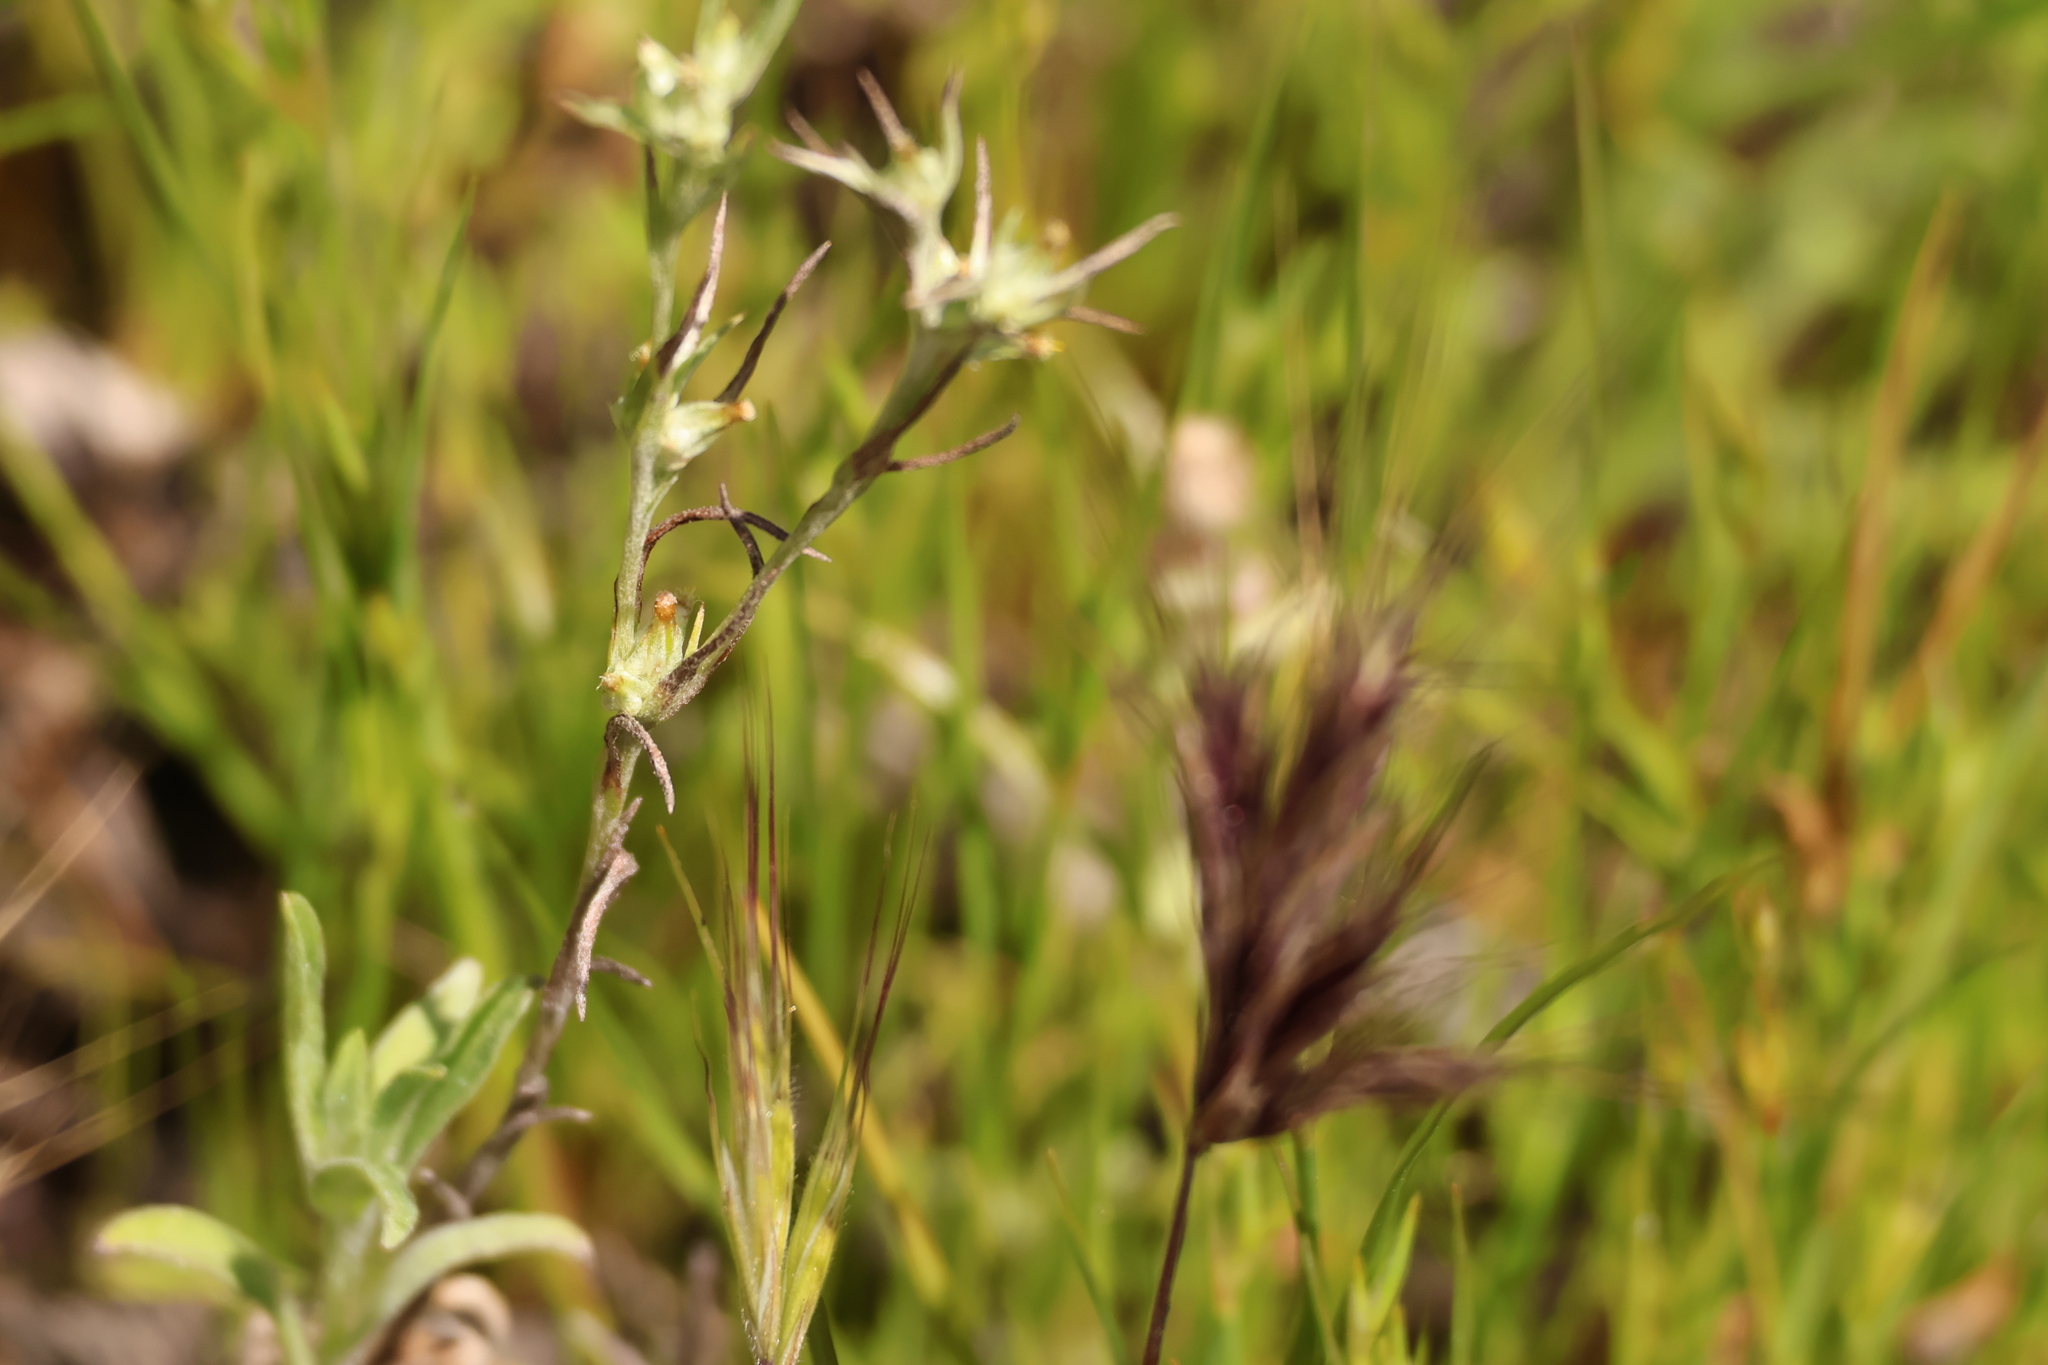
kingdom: Plantae
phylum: Tracheophyta
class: Magnoliopsida
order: Asterales
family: Asteraceae
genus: Logfia
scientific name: Logfia gallica
